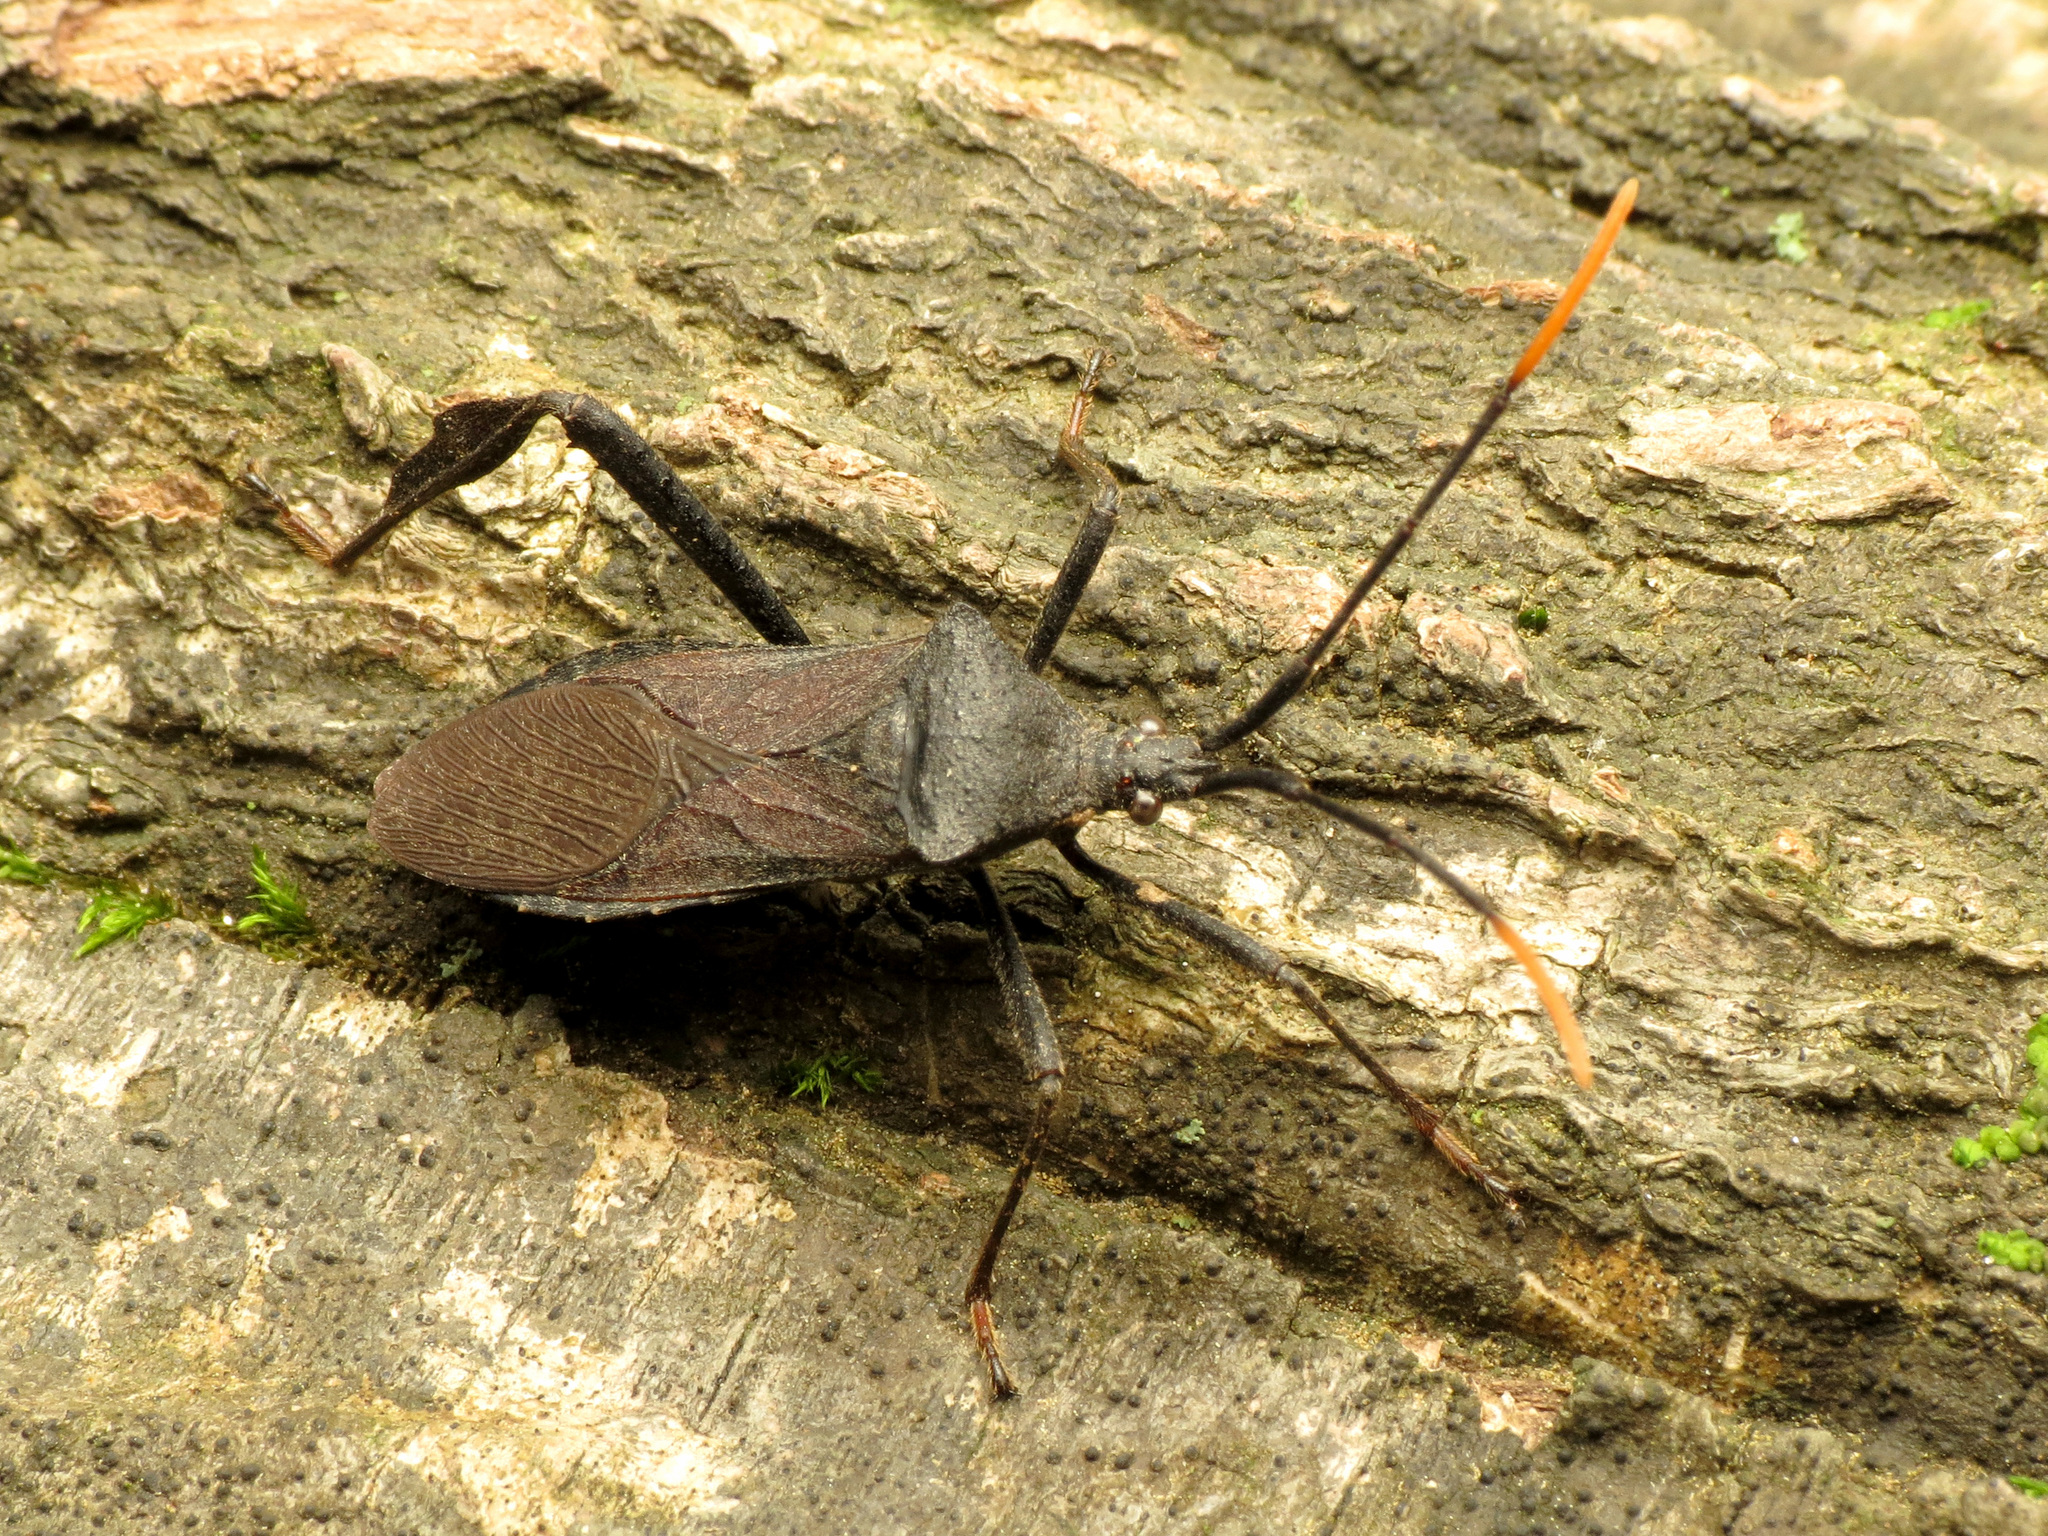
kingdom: Animalia
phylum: Arthropoda
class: Insecta
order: Hemiptera
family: Coreidae
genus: Acanthocephala
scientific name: Acanthocephala terminalis
